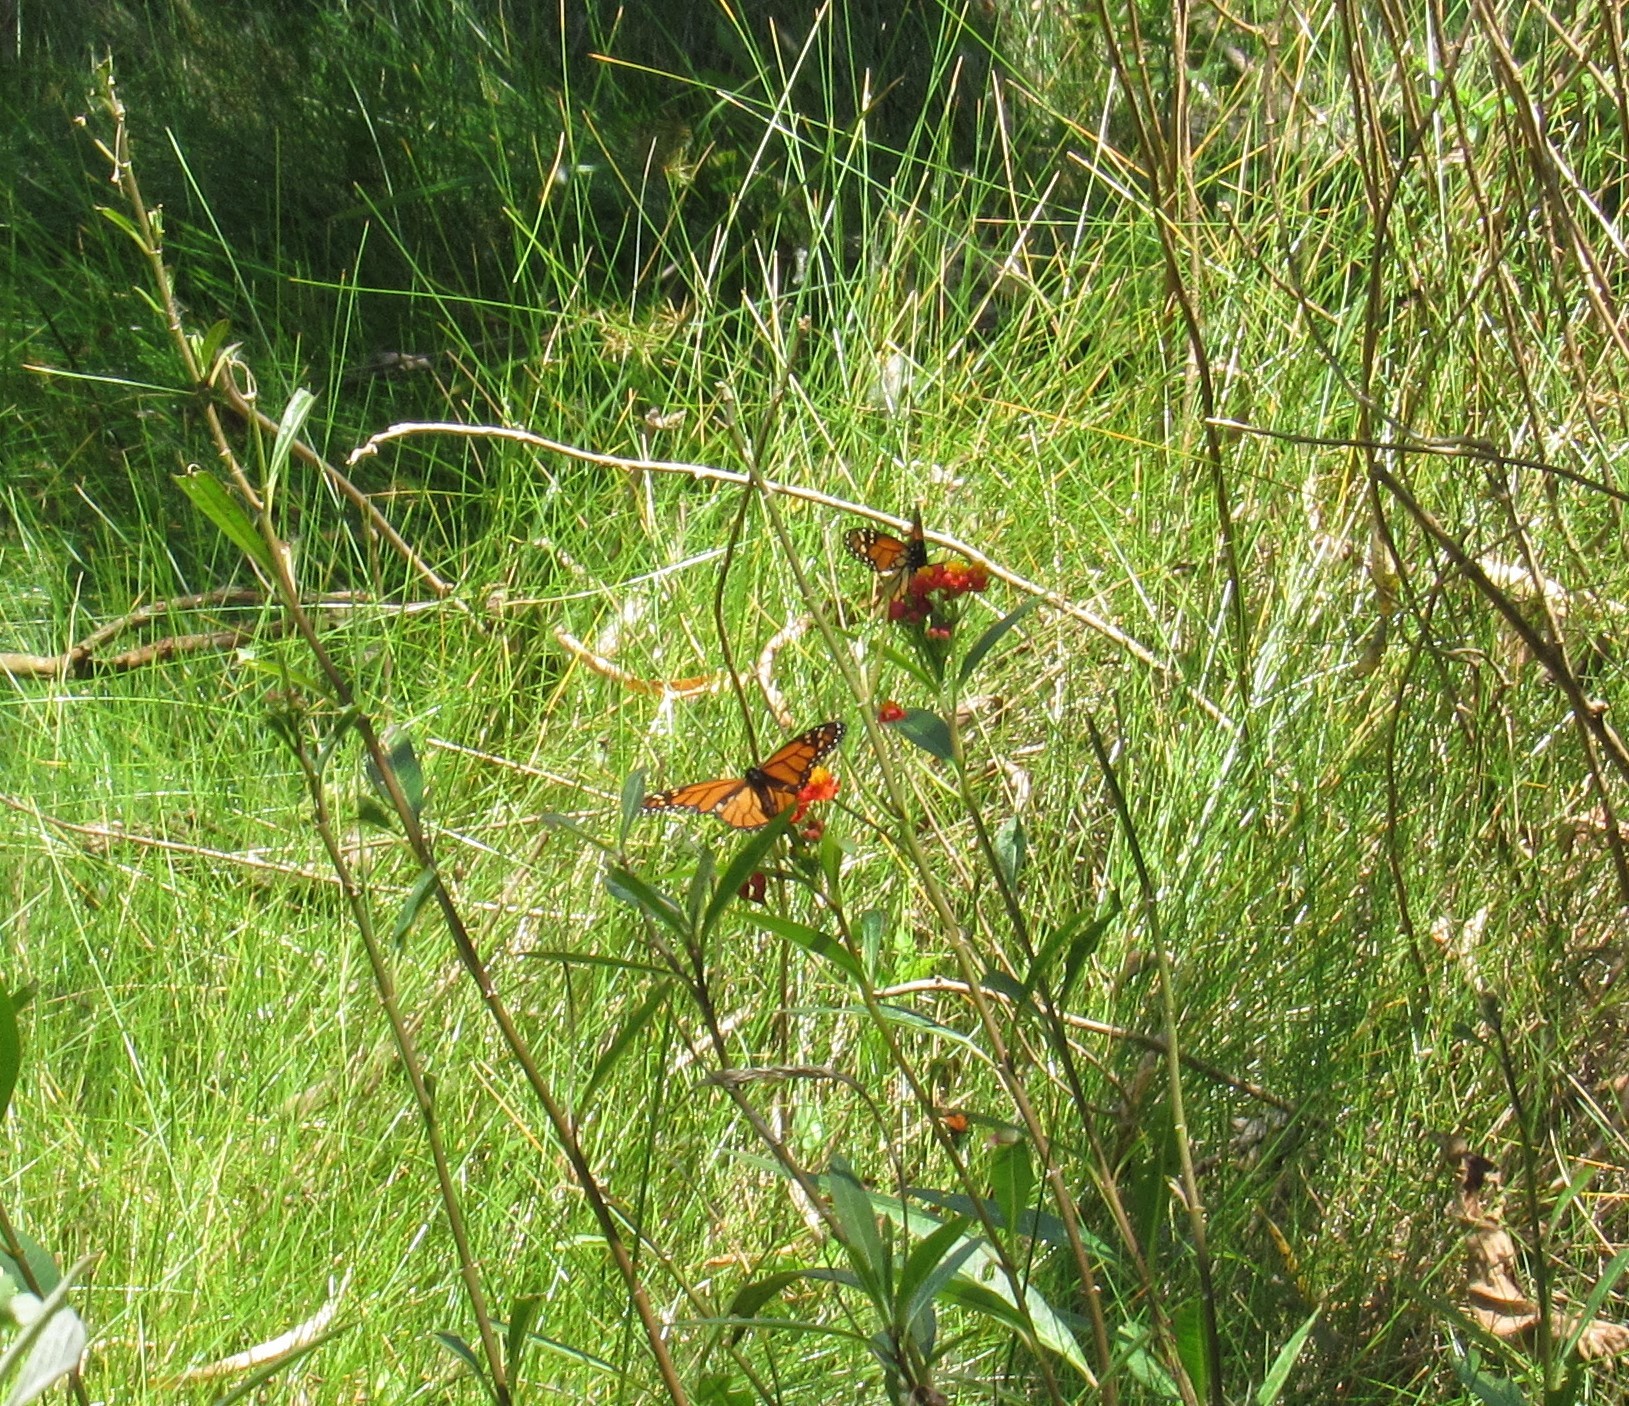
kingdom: Animalia
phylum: Arthropoda
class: Insecta
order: Lepidoptera
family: Nymphalidae
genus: Danaus
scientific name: Danaus plexippus
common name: Monarch
